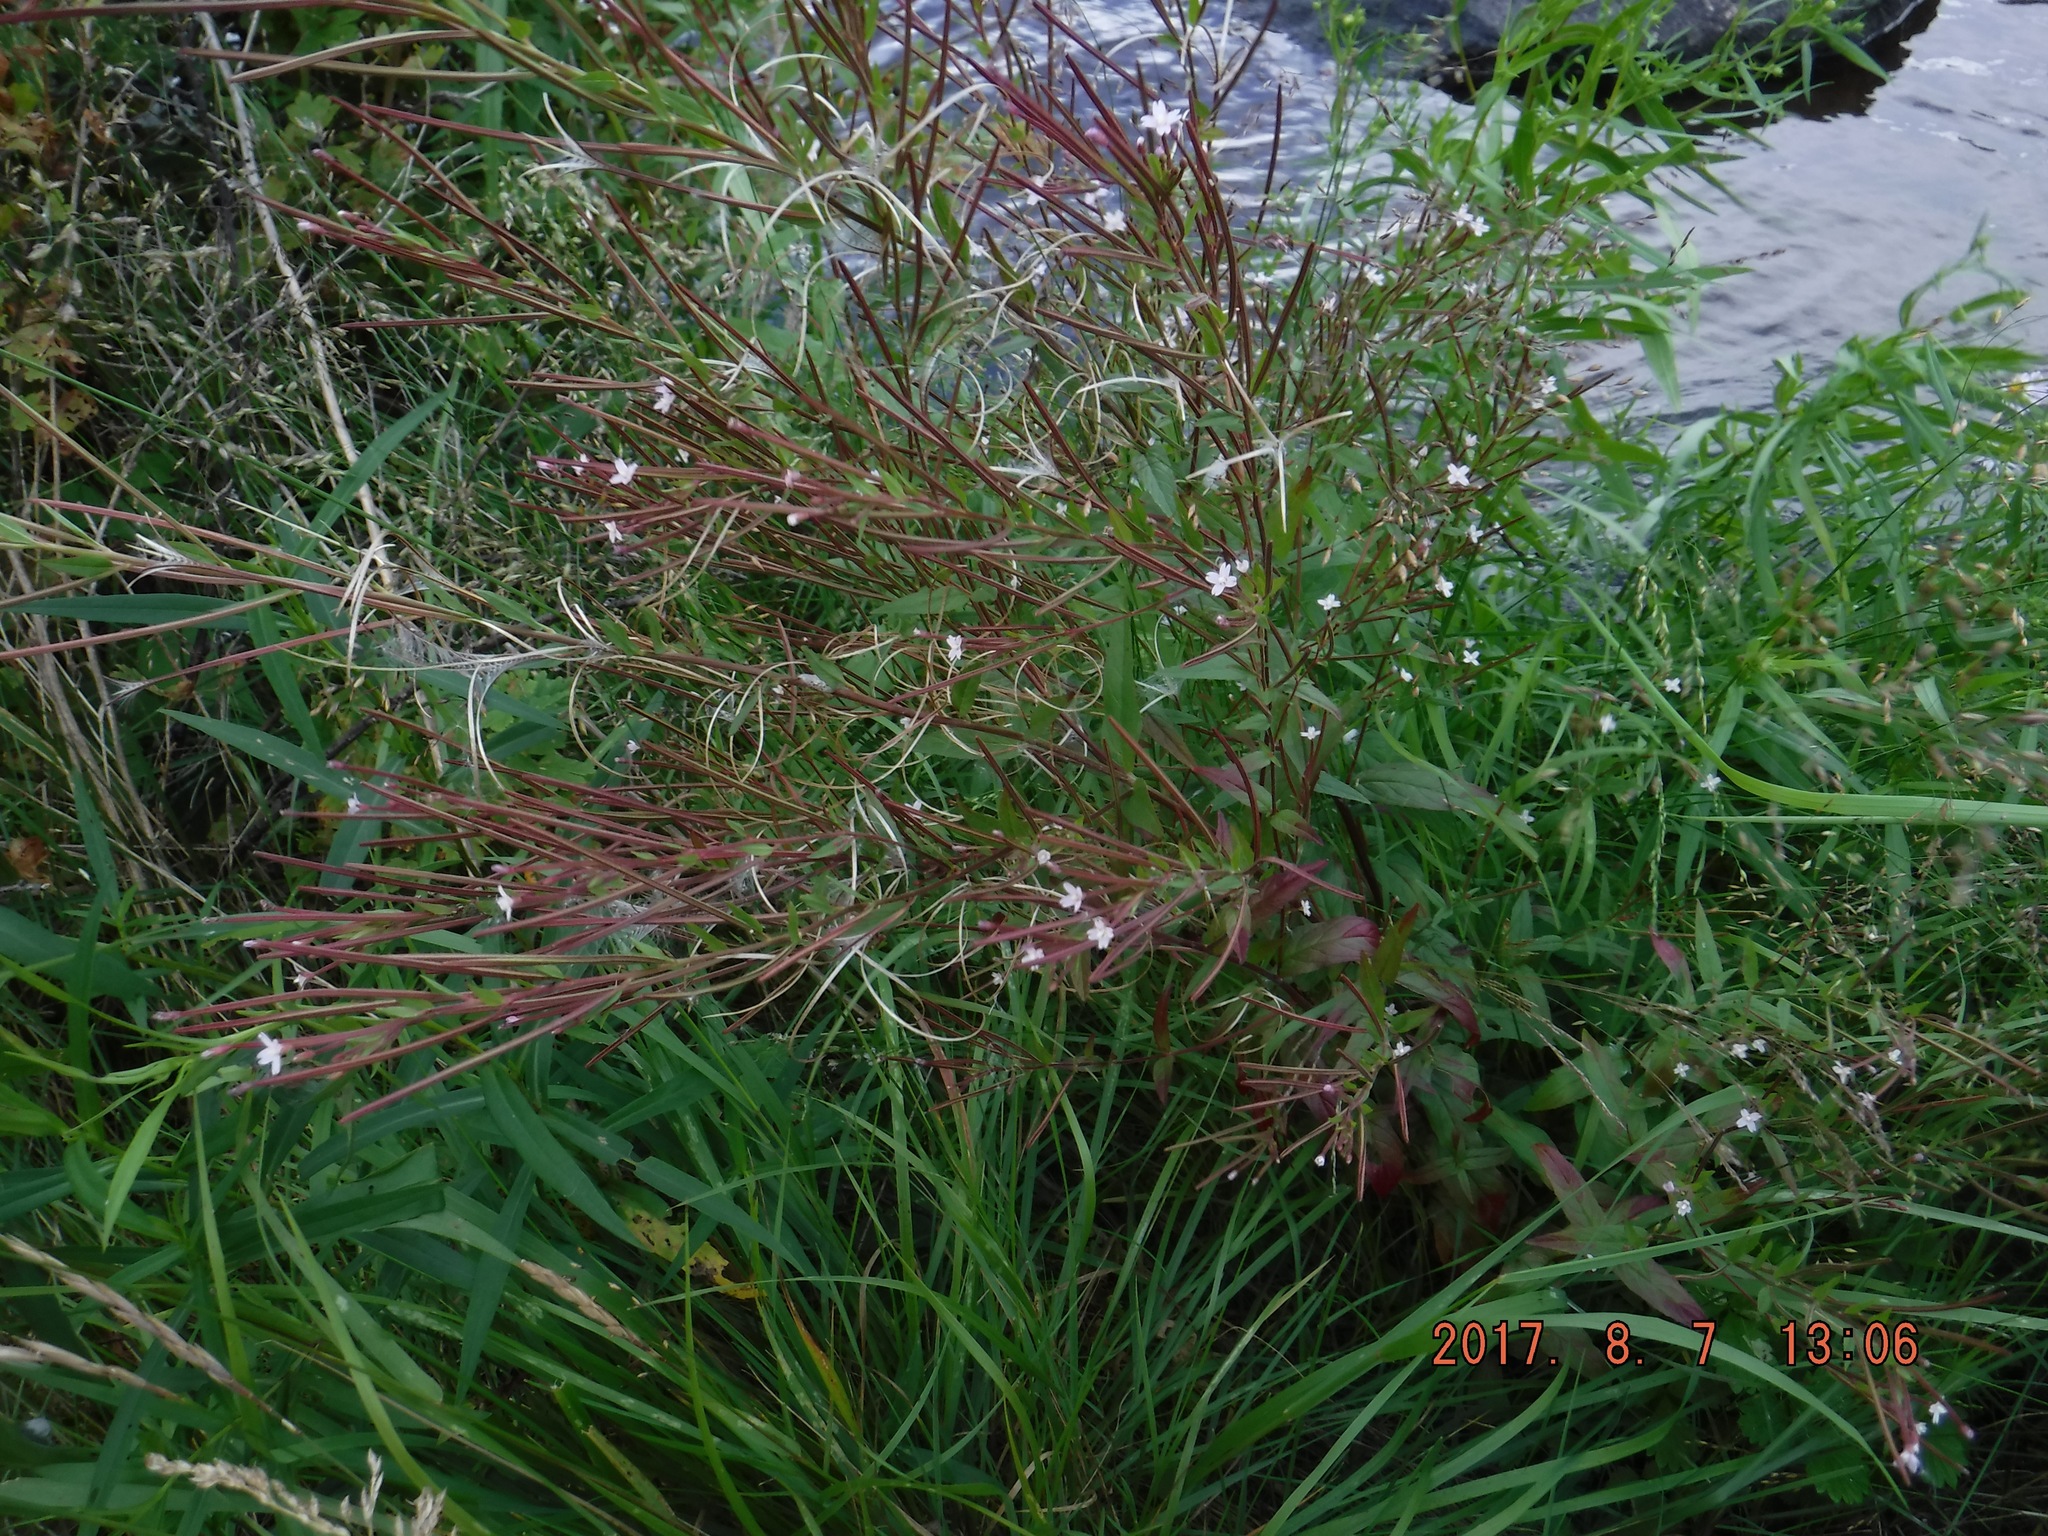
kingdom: Plantae
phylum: Tracheophyta
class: Magnoliopsida
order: Myrtales
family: Onagraceae
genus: Epilobium
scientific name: Epilobium ciliatum
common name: American willowherb
